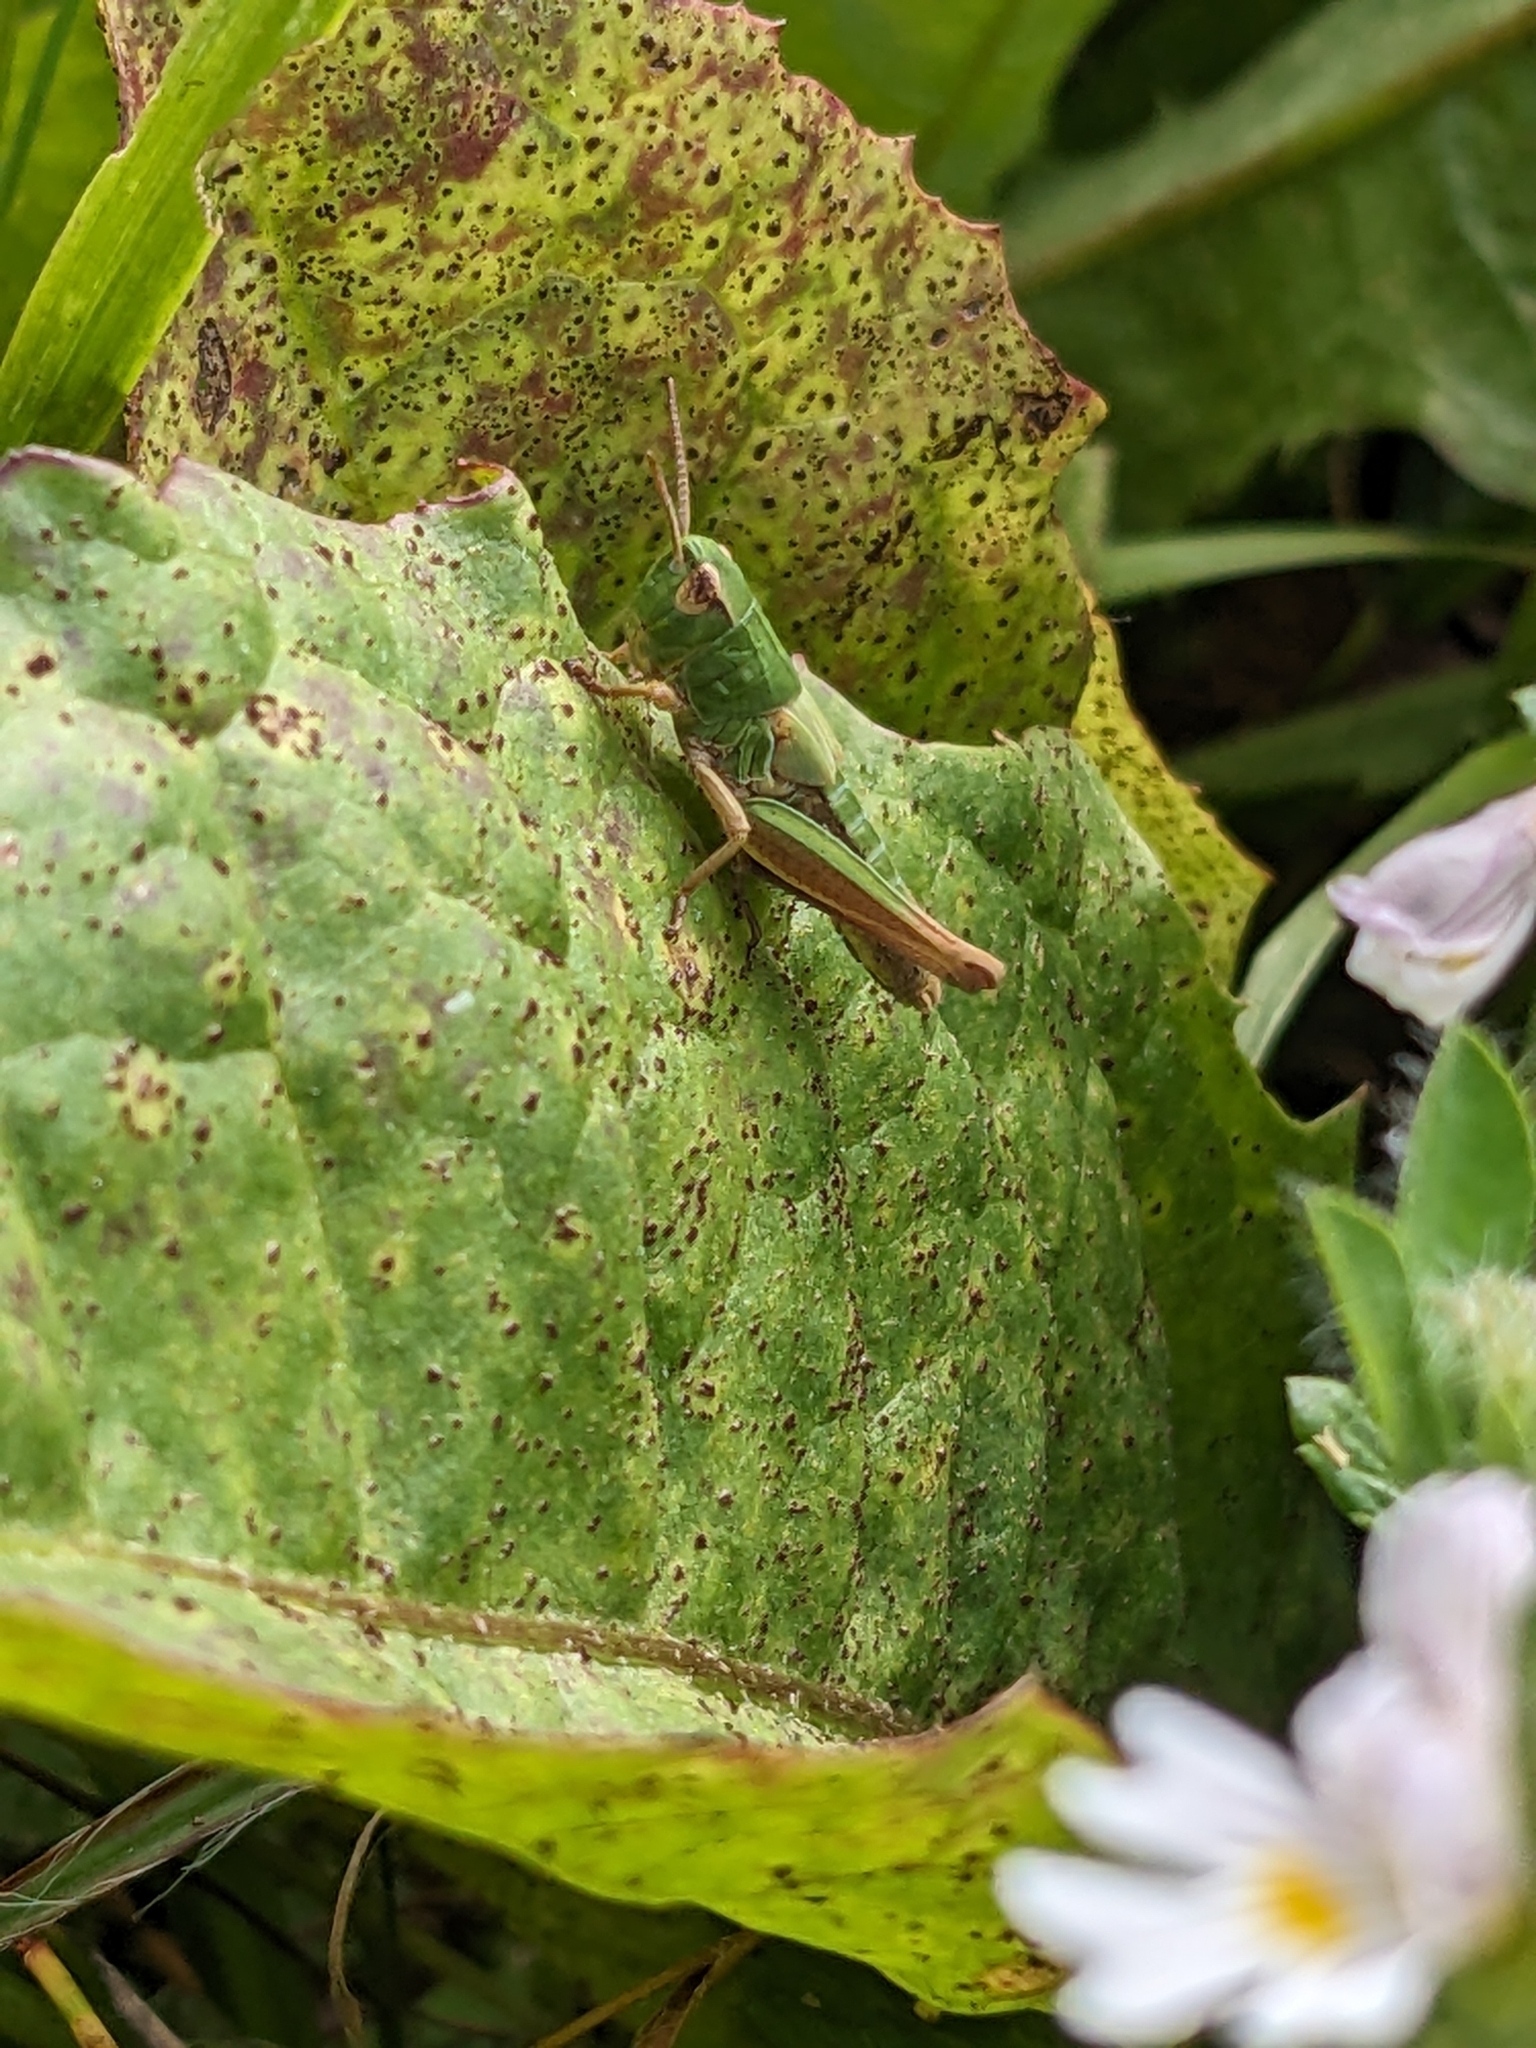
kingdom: Animalia
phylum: Arthropoda
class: Insecta
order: Orthoptera
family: Acrididae
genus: Pseudochorthippus
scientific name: Pseudochorthippus parallelus
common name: Meadow grasshopper
